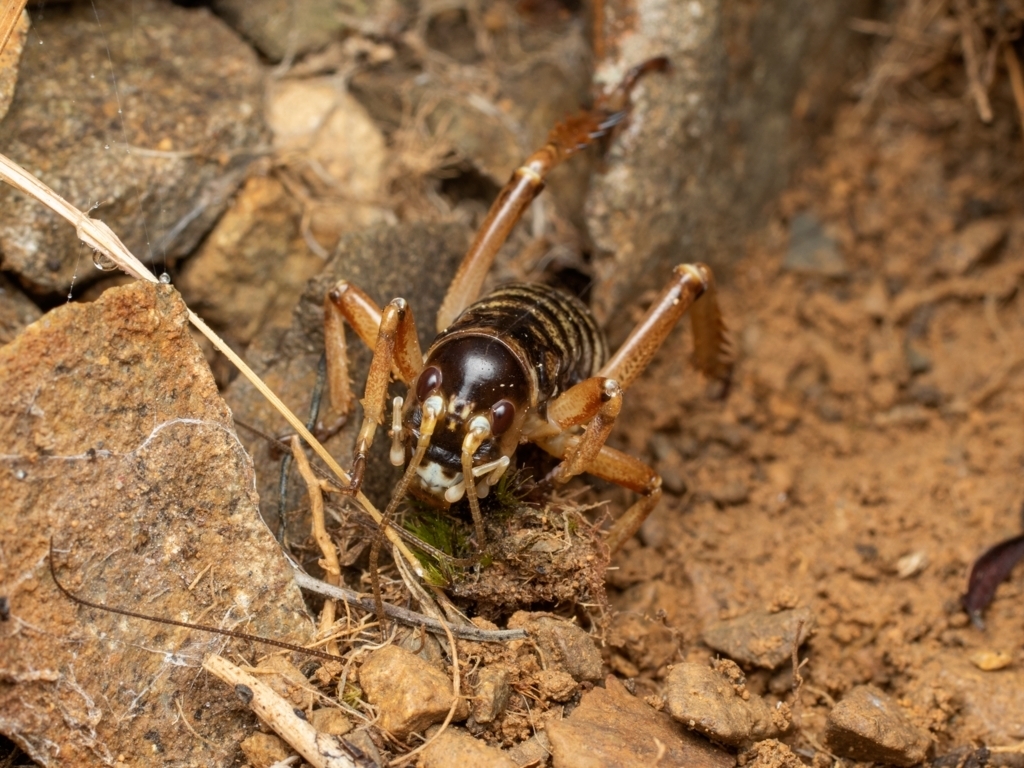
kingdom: Animalia
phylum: Arthropoda
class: Insecta
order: Orthoptera
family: Anostostomatidae
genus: Hemideina
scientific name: Hemideina maori
